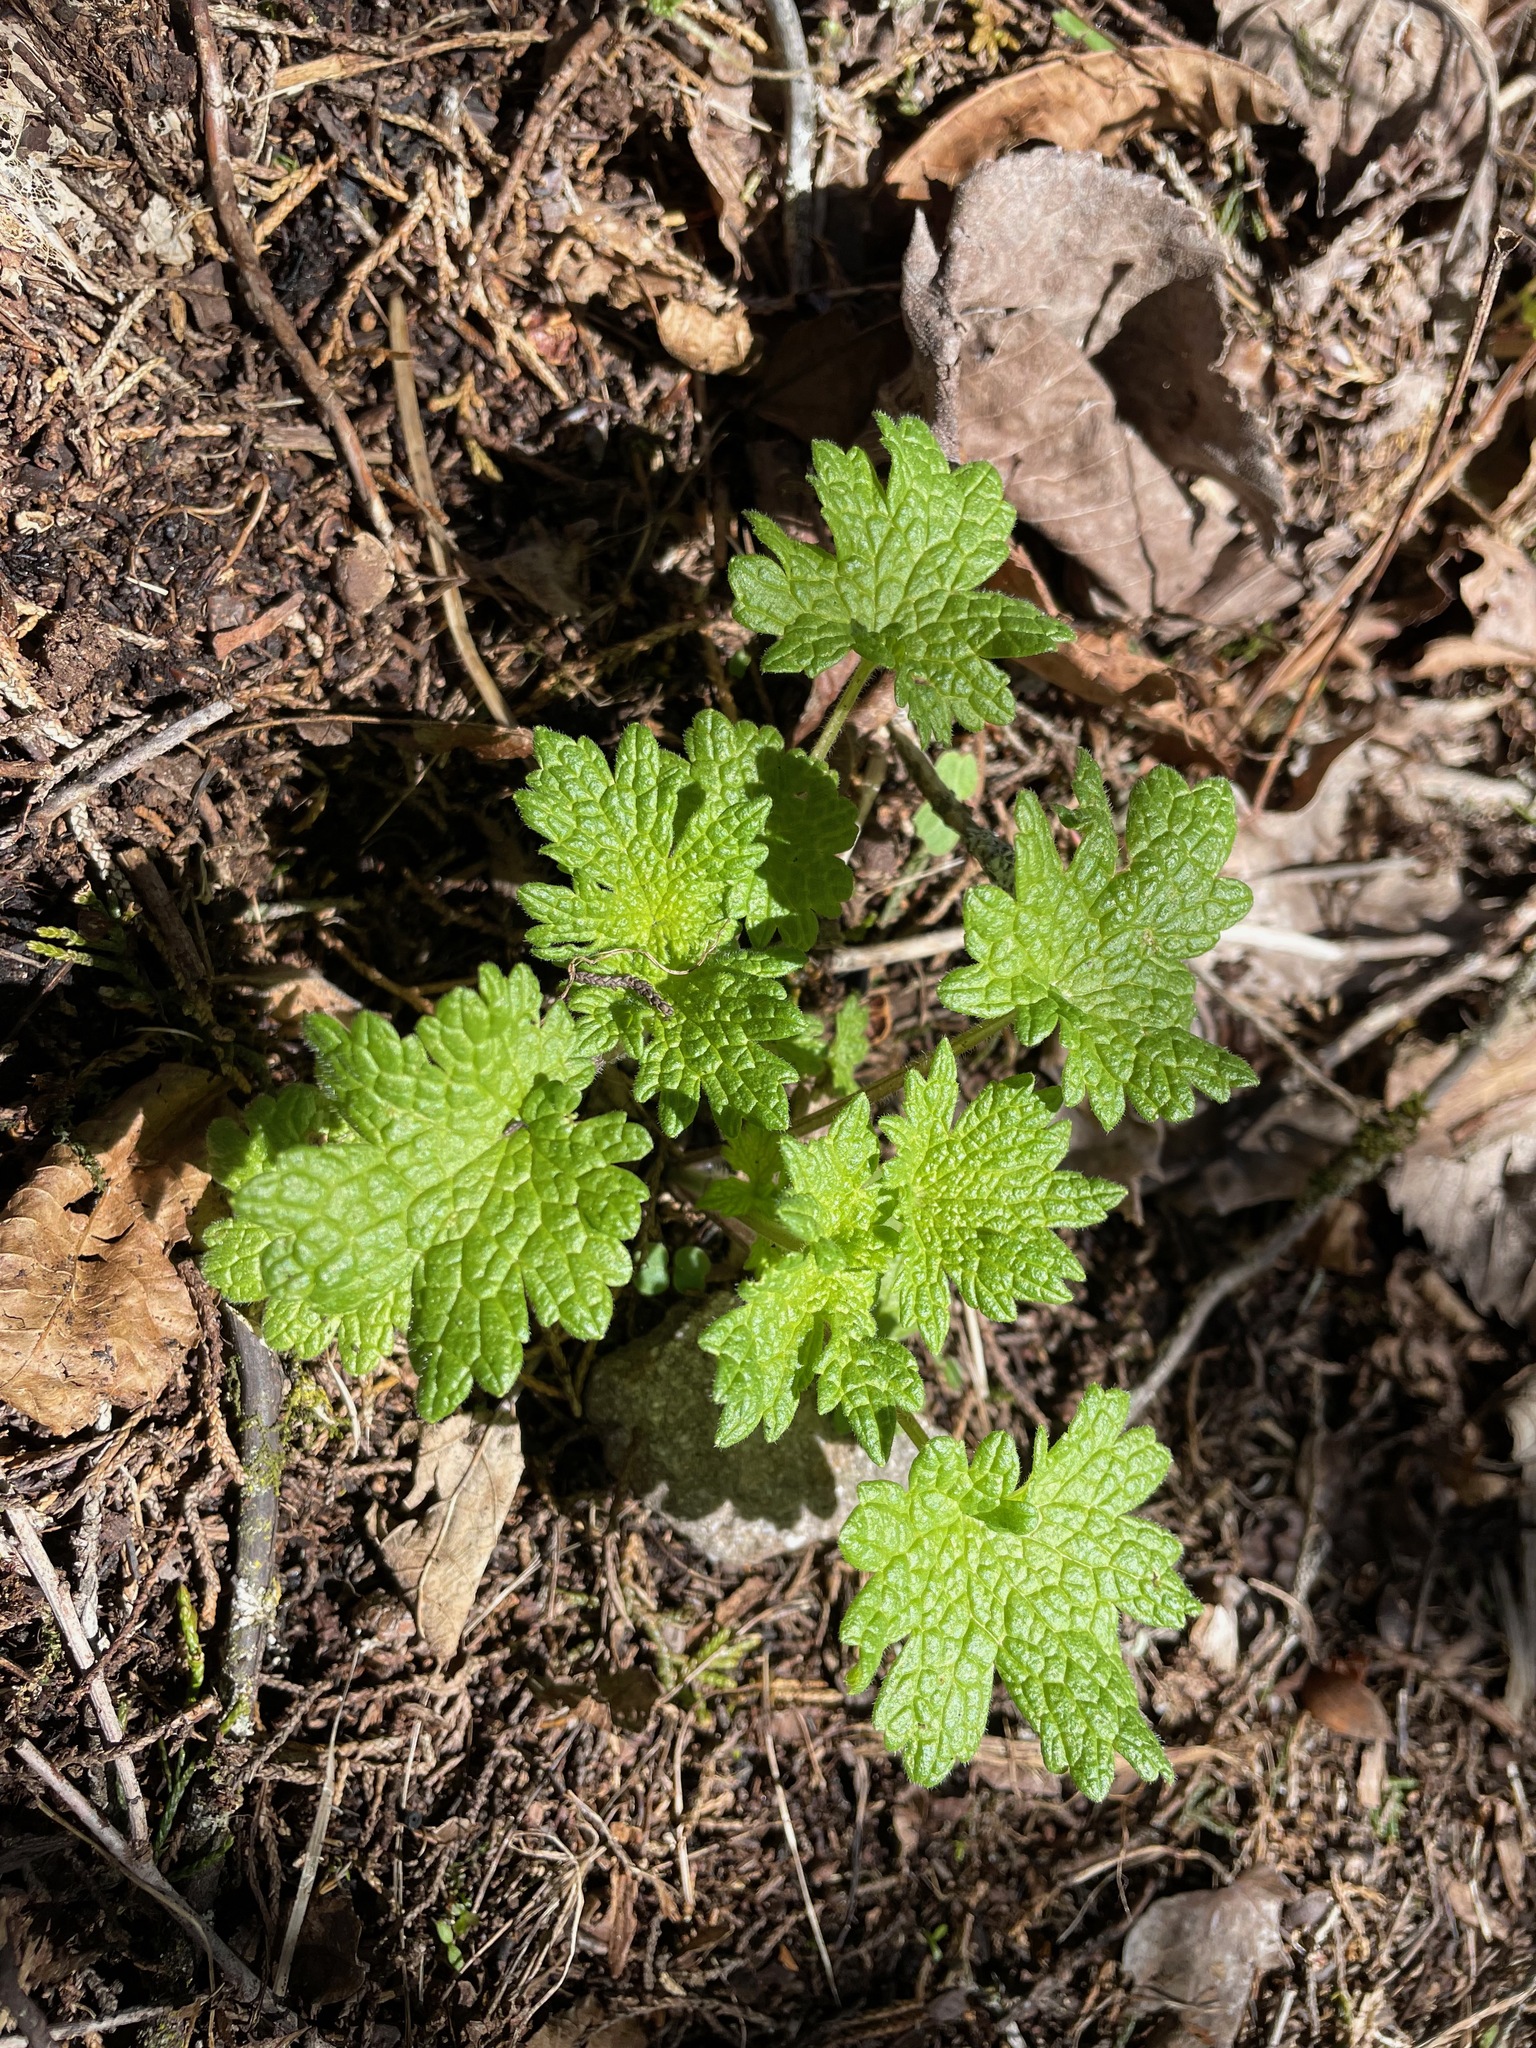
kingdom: Plantae
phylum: Tracheophyta
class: Magnoliopsida
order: Lamiales
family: Lamiaceae
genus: Leonurus
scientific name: Leonurus cardiaca
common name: Motherwort
